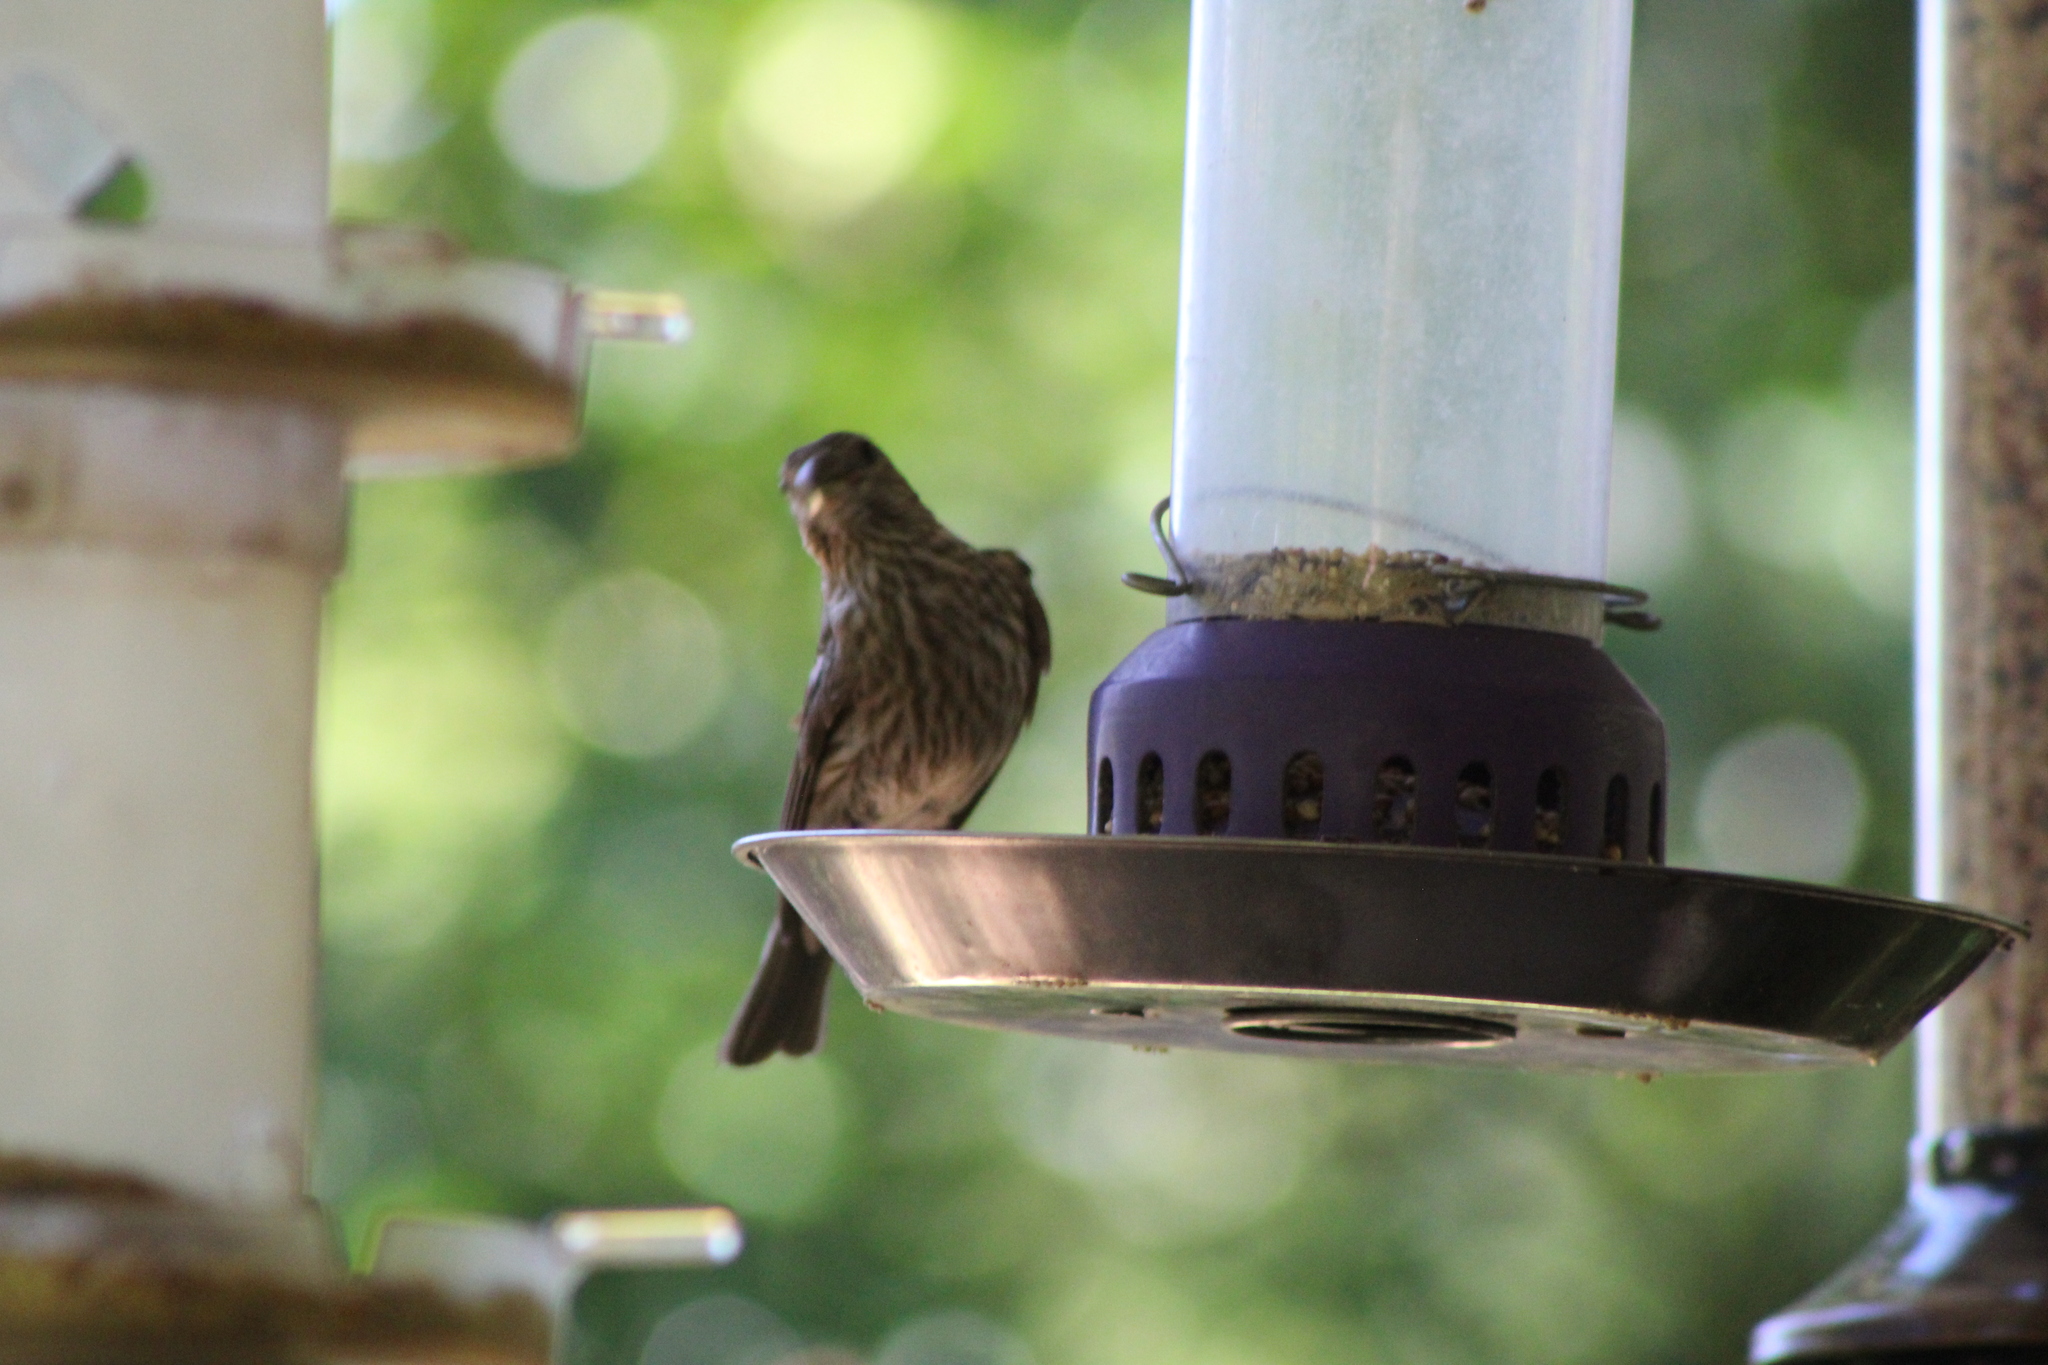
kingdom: Animalia
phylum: Chordata
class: Aves
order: Passeriformes
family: Fringillidae
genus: Haemorhous
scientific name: Haemorhous mexicanus
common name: House finch
